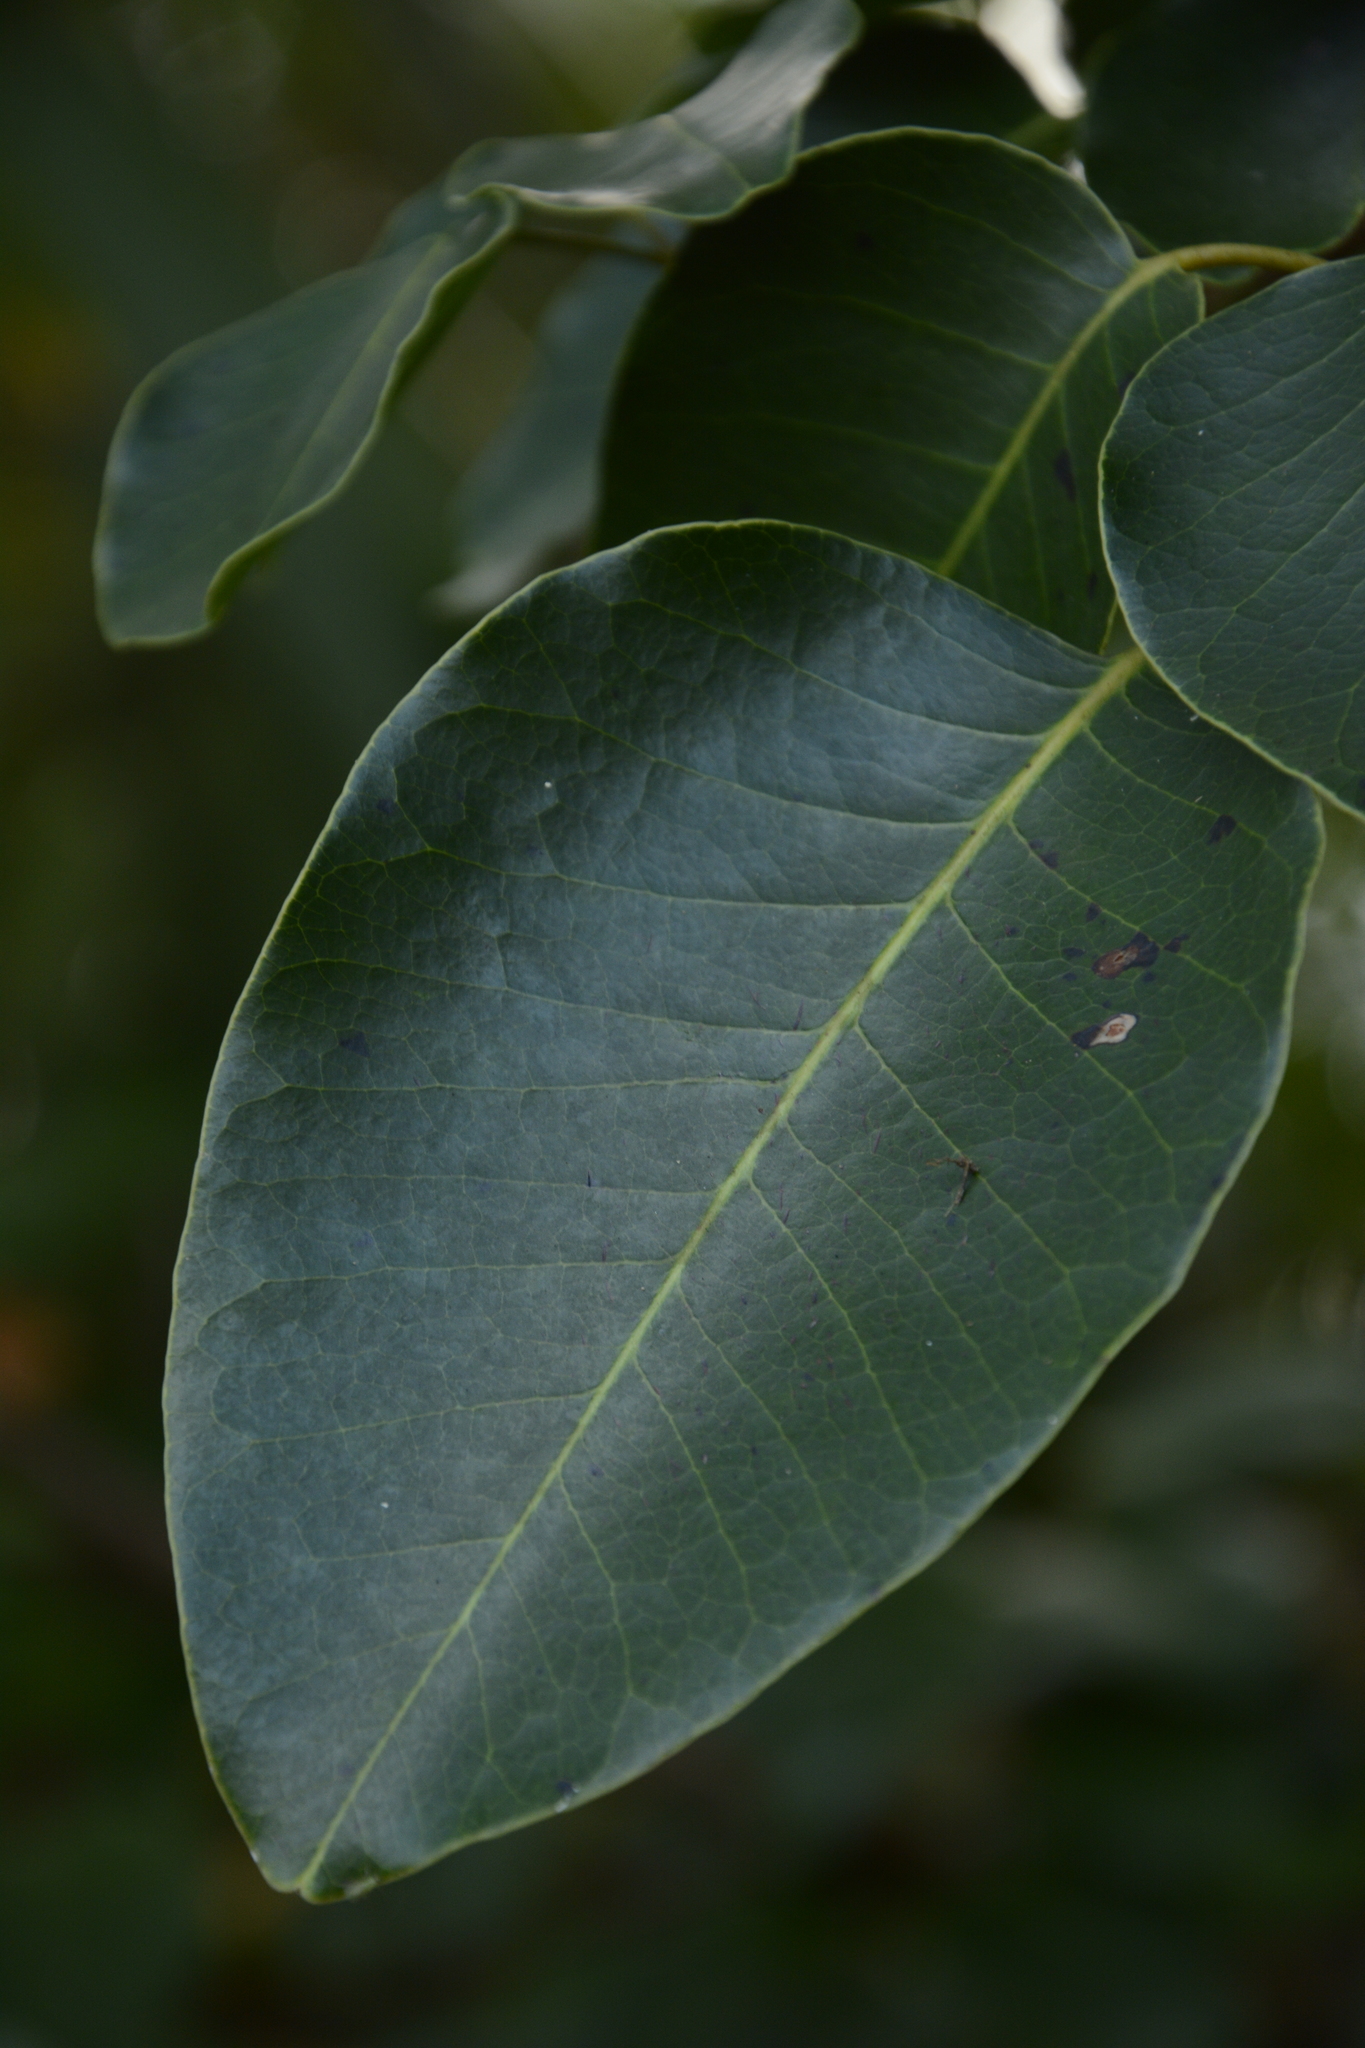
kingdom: Plantae
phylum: Tracheophyta
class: Magnoliopsida
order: Sapindales
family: Anacardiaceae
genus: Metopium
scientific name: Metopium toxiferum
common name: Florida poisontree
